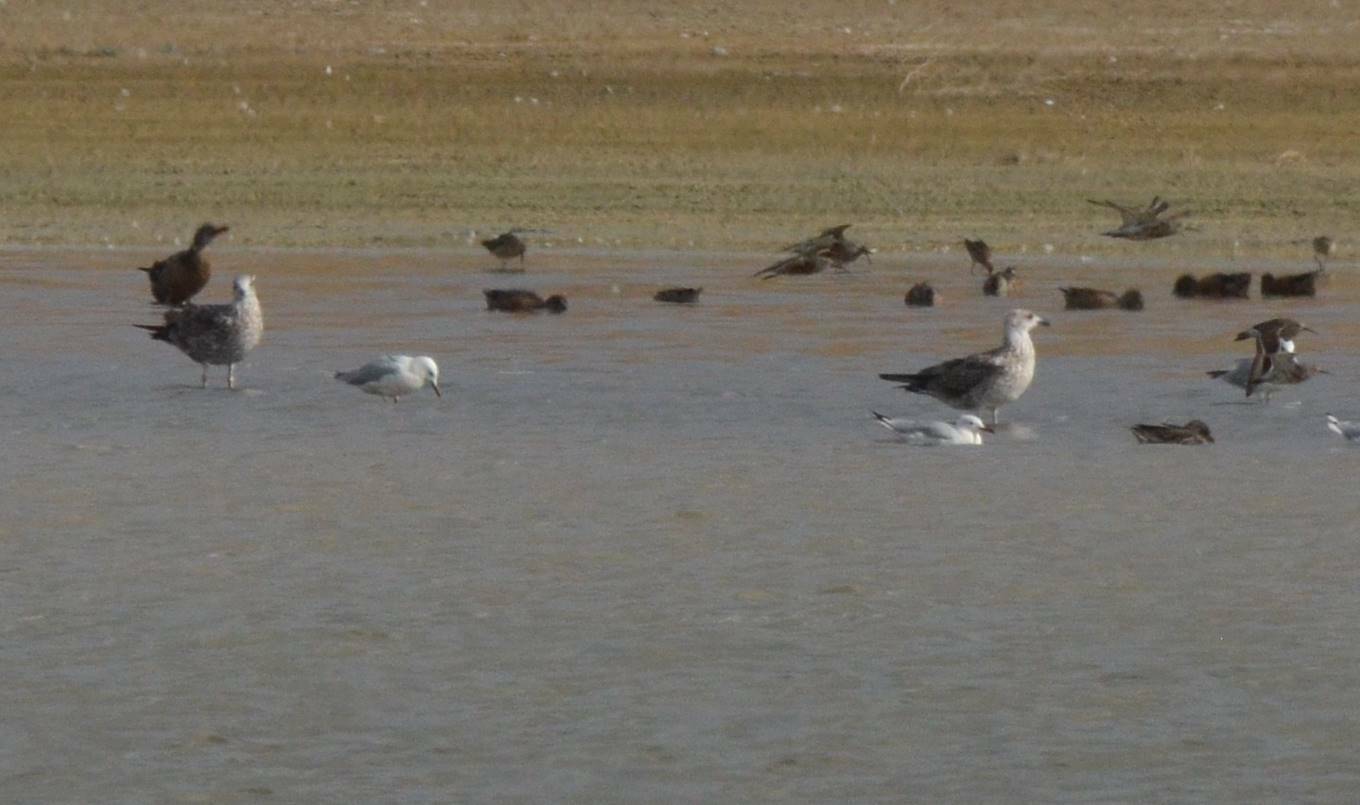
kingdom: Animalia
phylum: Chordata
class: Aves
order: Charadriiformes
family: Laridae
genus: Larus
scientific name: Larus michahellis
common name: Yellow-legged gull
